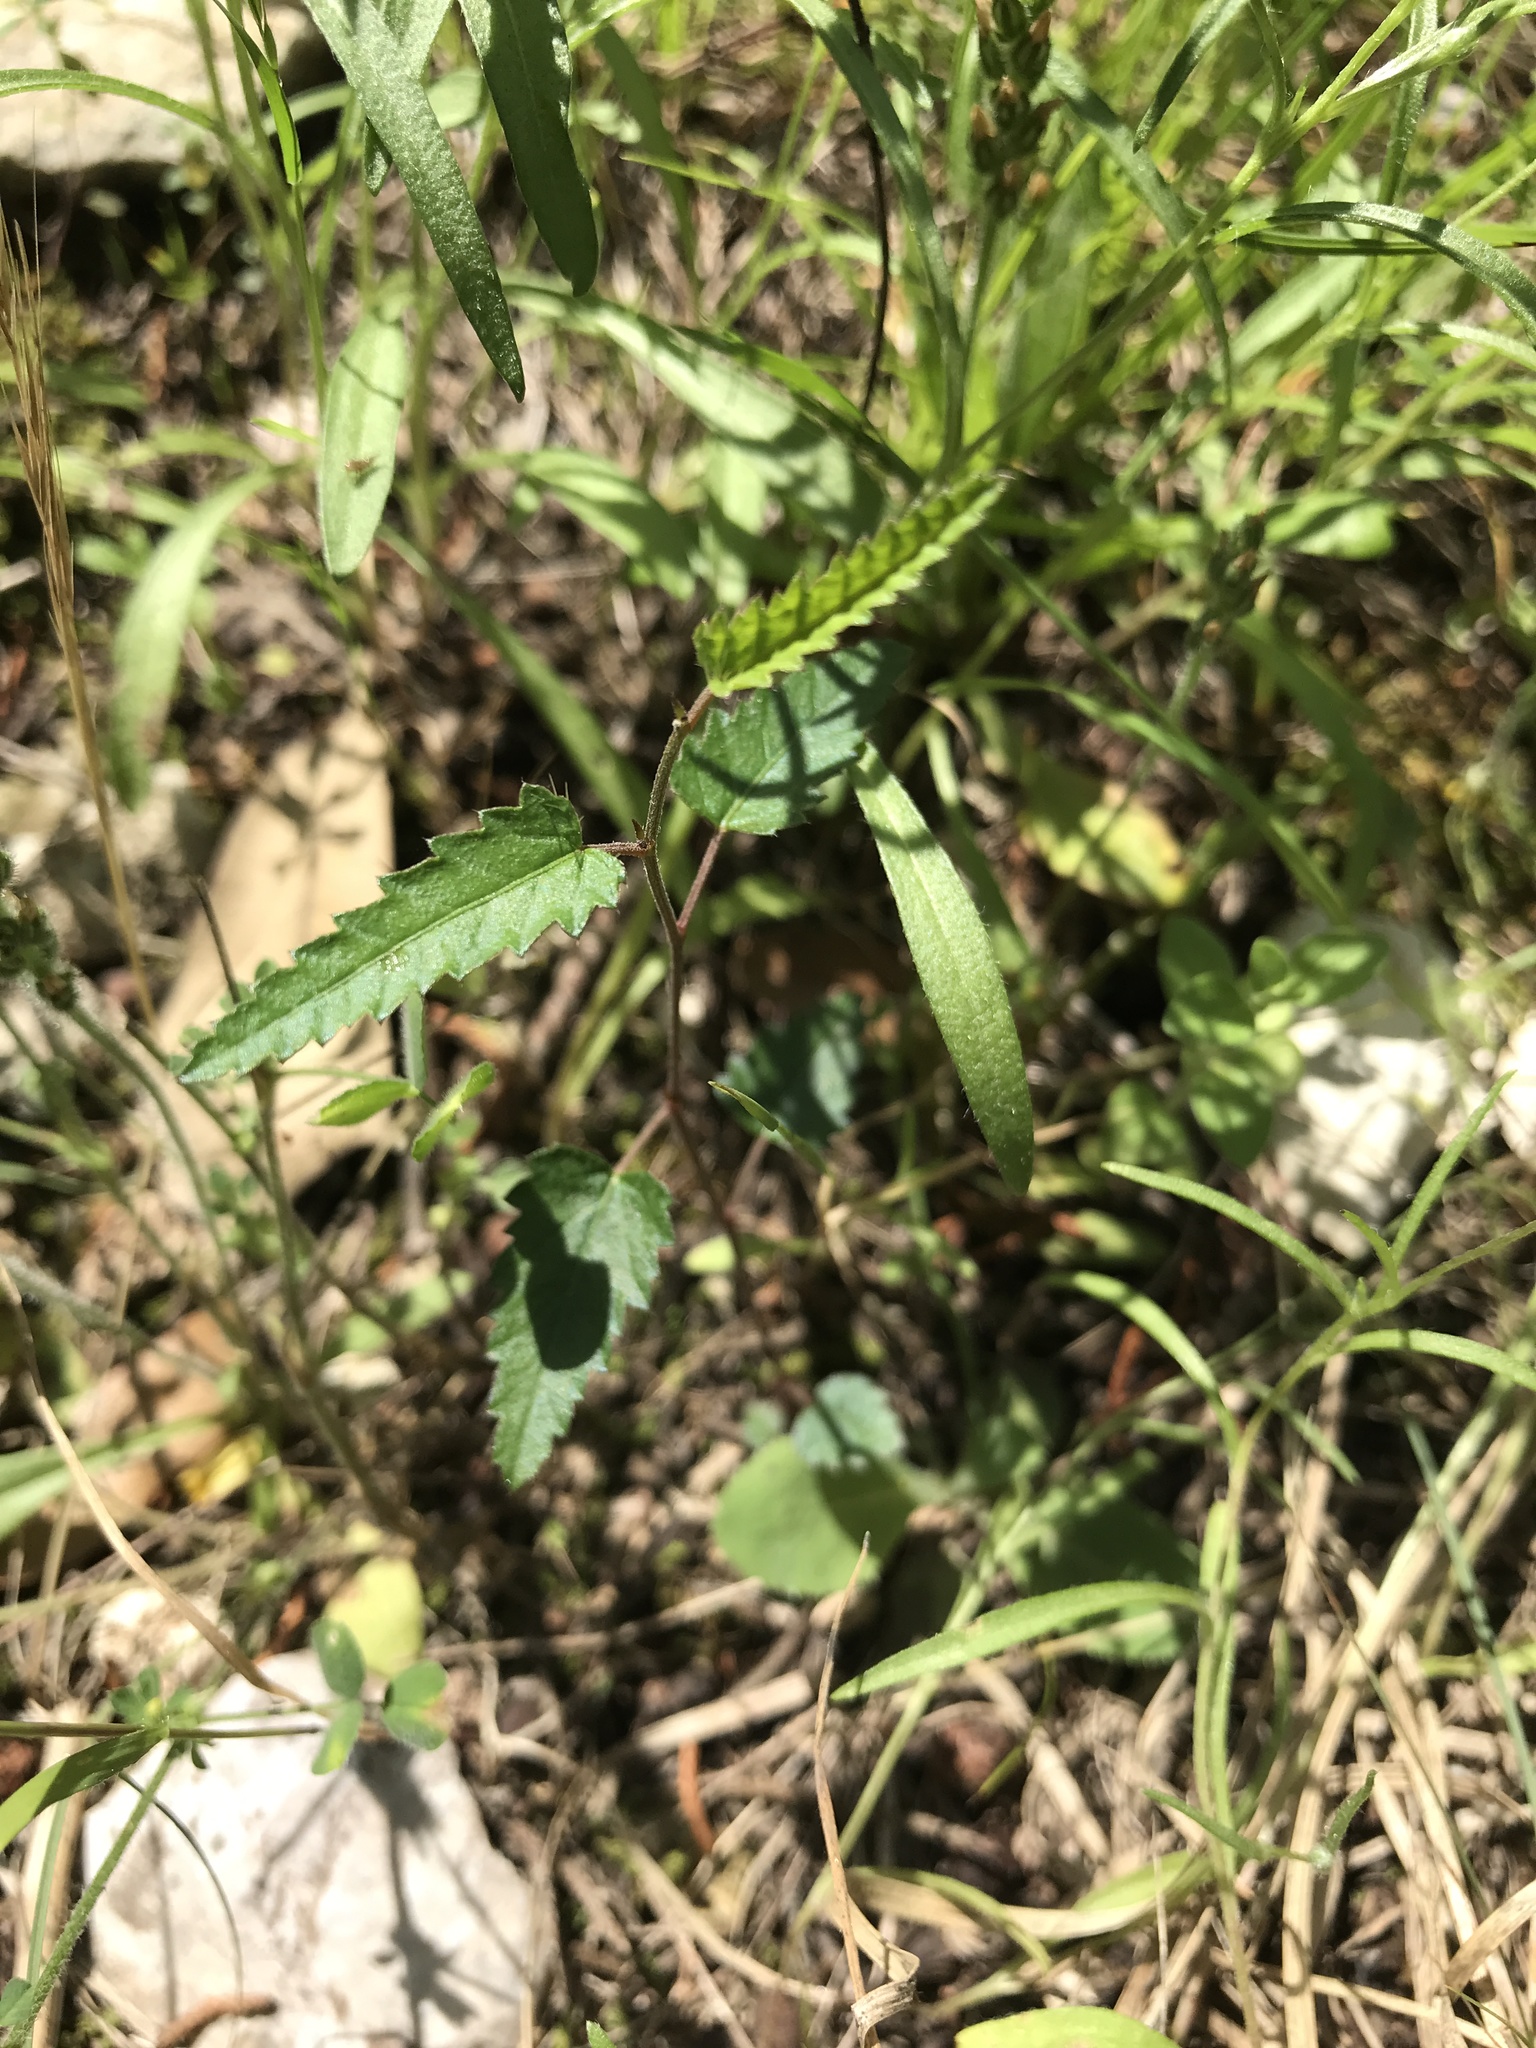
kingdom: Plantae
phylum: Tracheophyta
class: Magnoliopsida
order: Malpighiales
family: Euphorbiaceae
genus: Tragia
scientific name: Tragia ramosa
